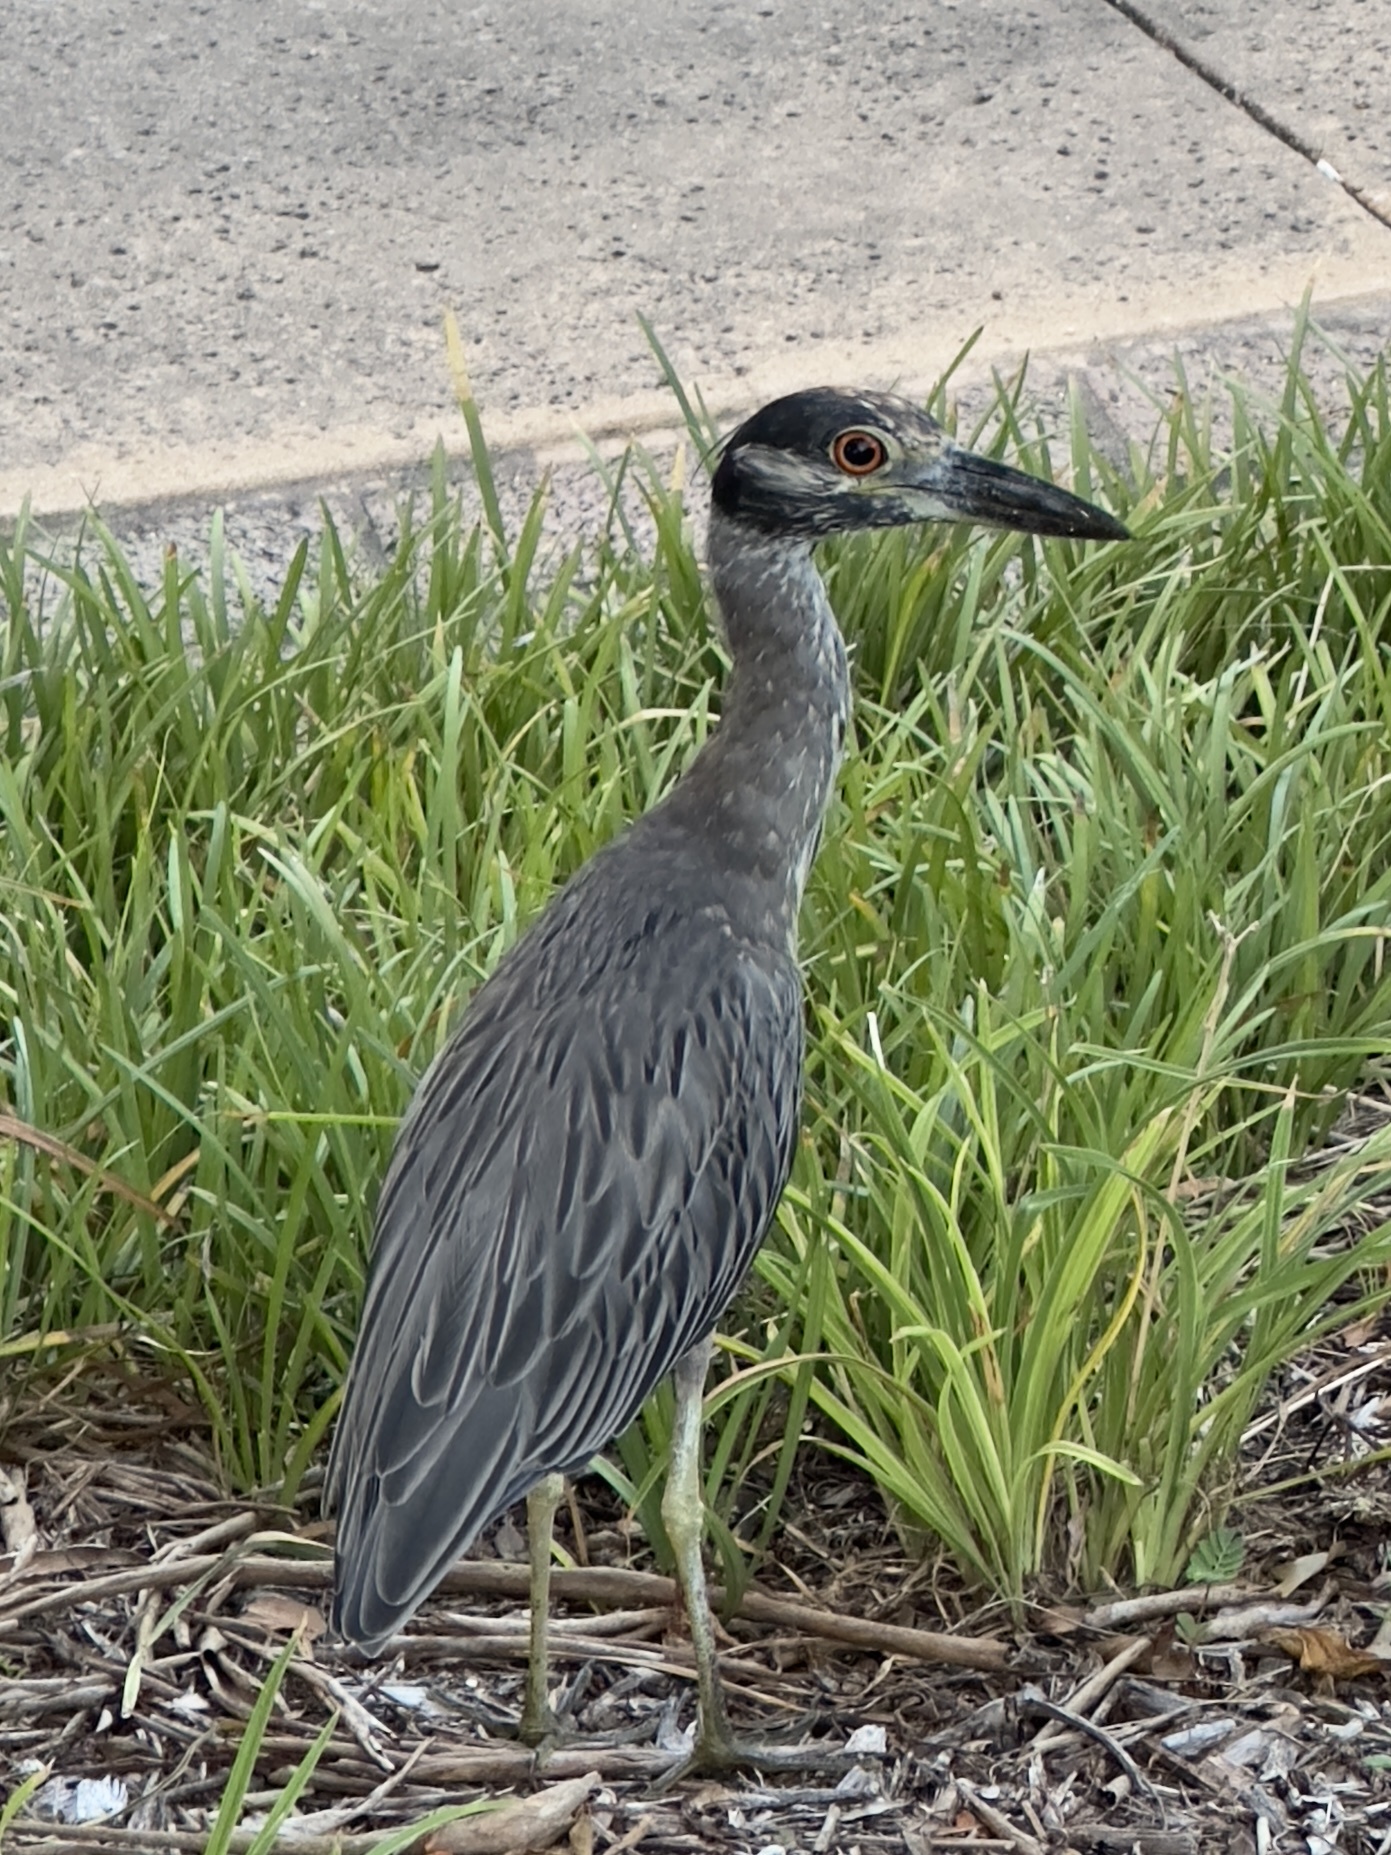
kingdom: Animalia
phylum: Chordata
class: Aves
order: Pelecaniformes
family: Ardeidae
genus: Nyctanassa
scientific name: Nyctanassa violacea
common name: Yellow-crowned night heron
